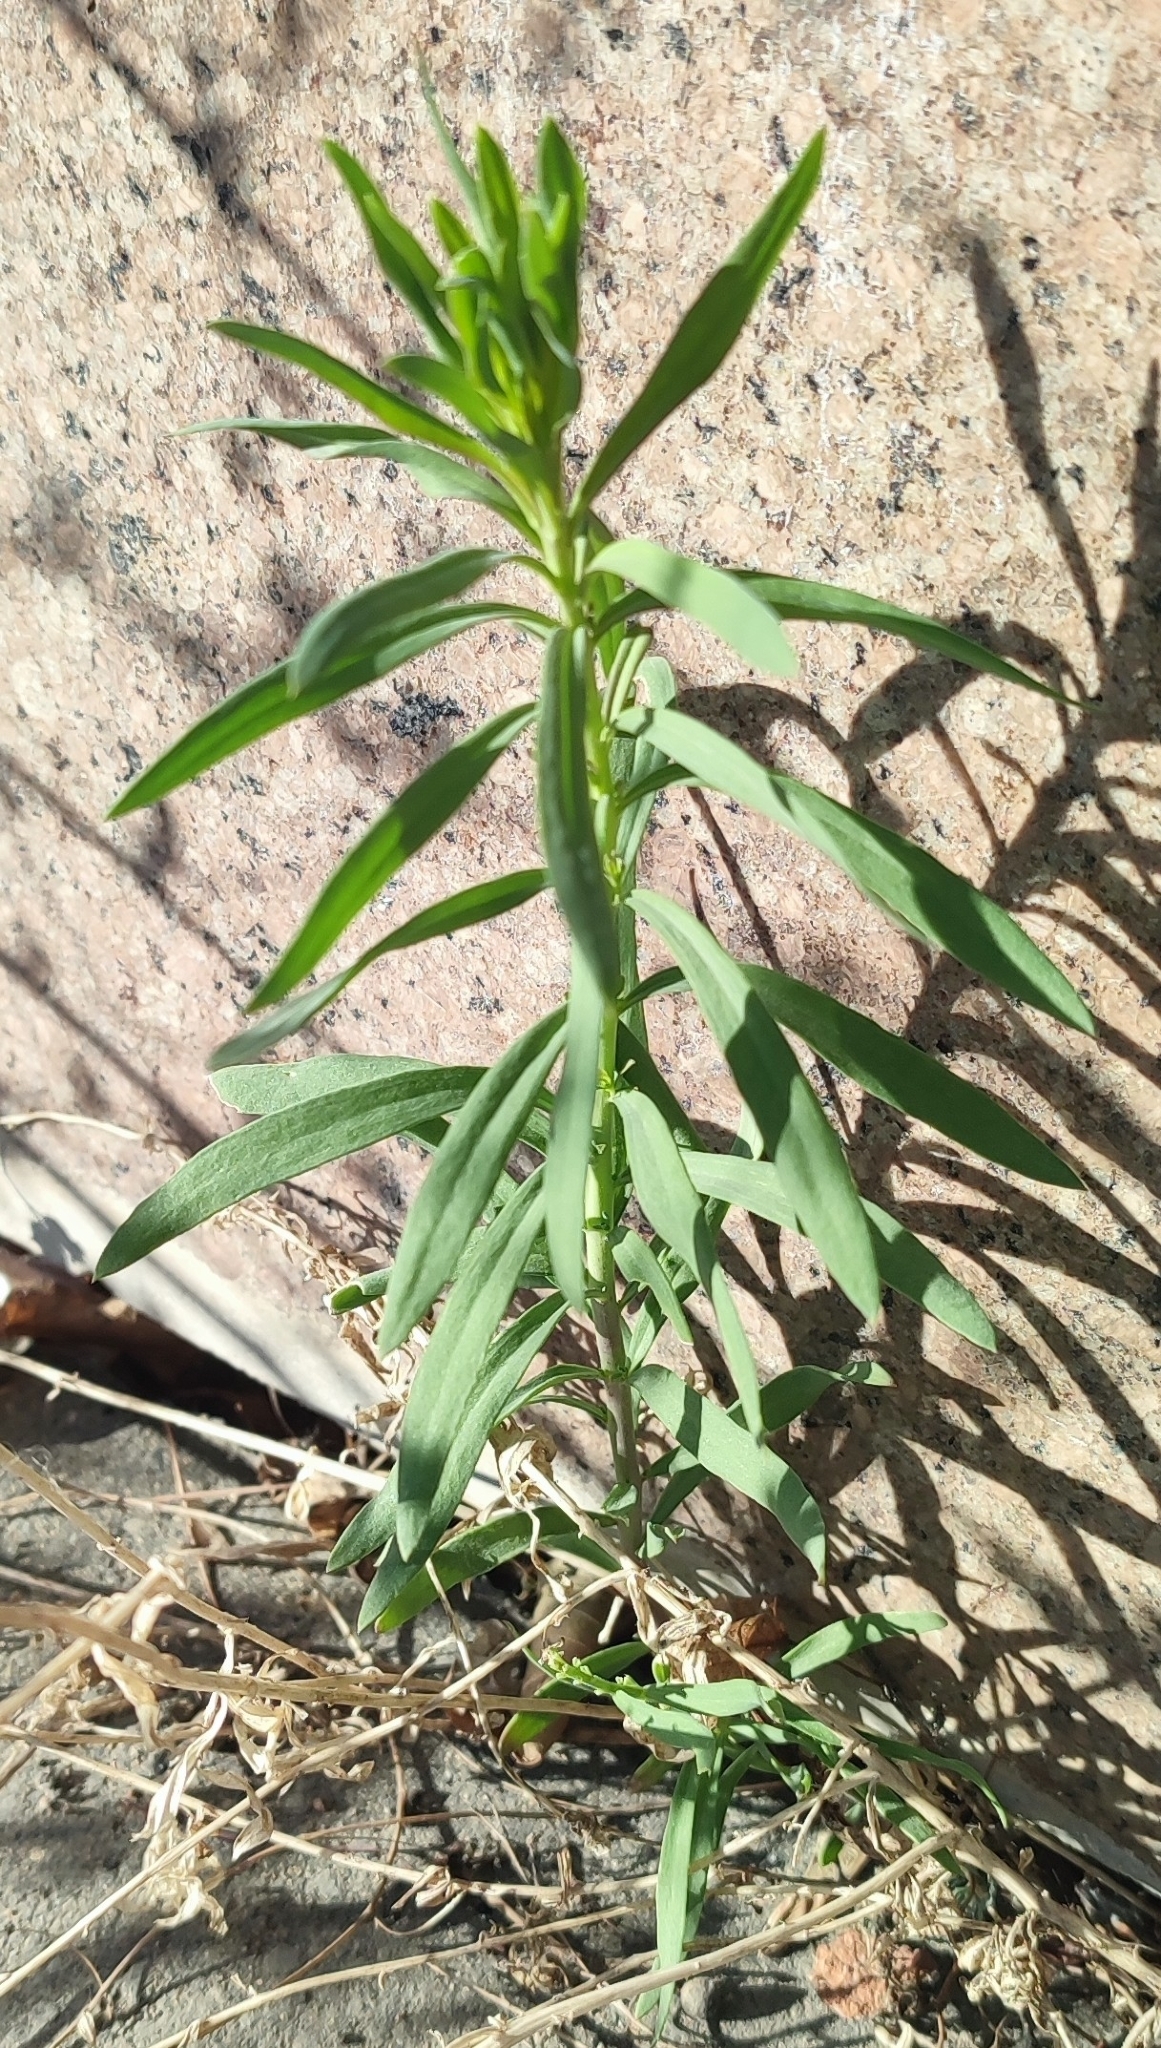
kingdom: Plantae
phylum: Tracheophyta
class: Magnoliopsida
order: Lamiales
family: Plantaginaceae
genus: Linaria
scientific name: Linaria vulgaris
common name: Butter and eggs
